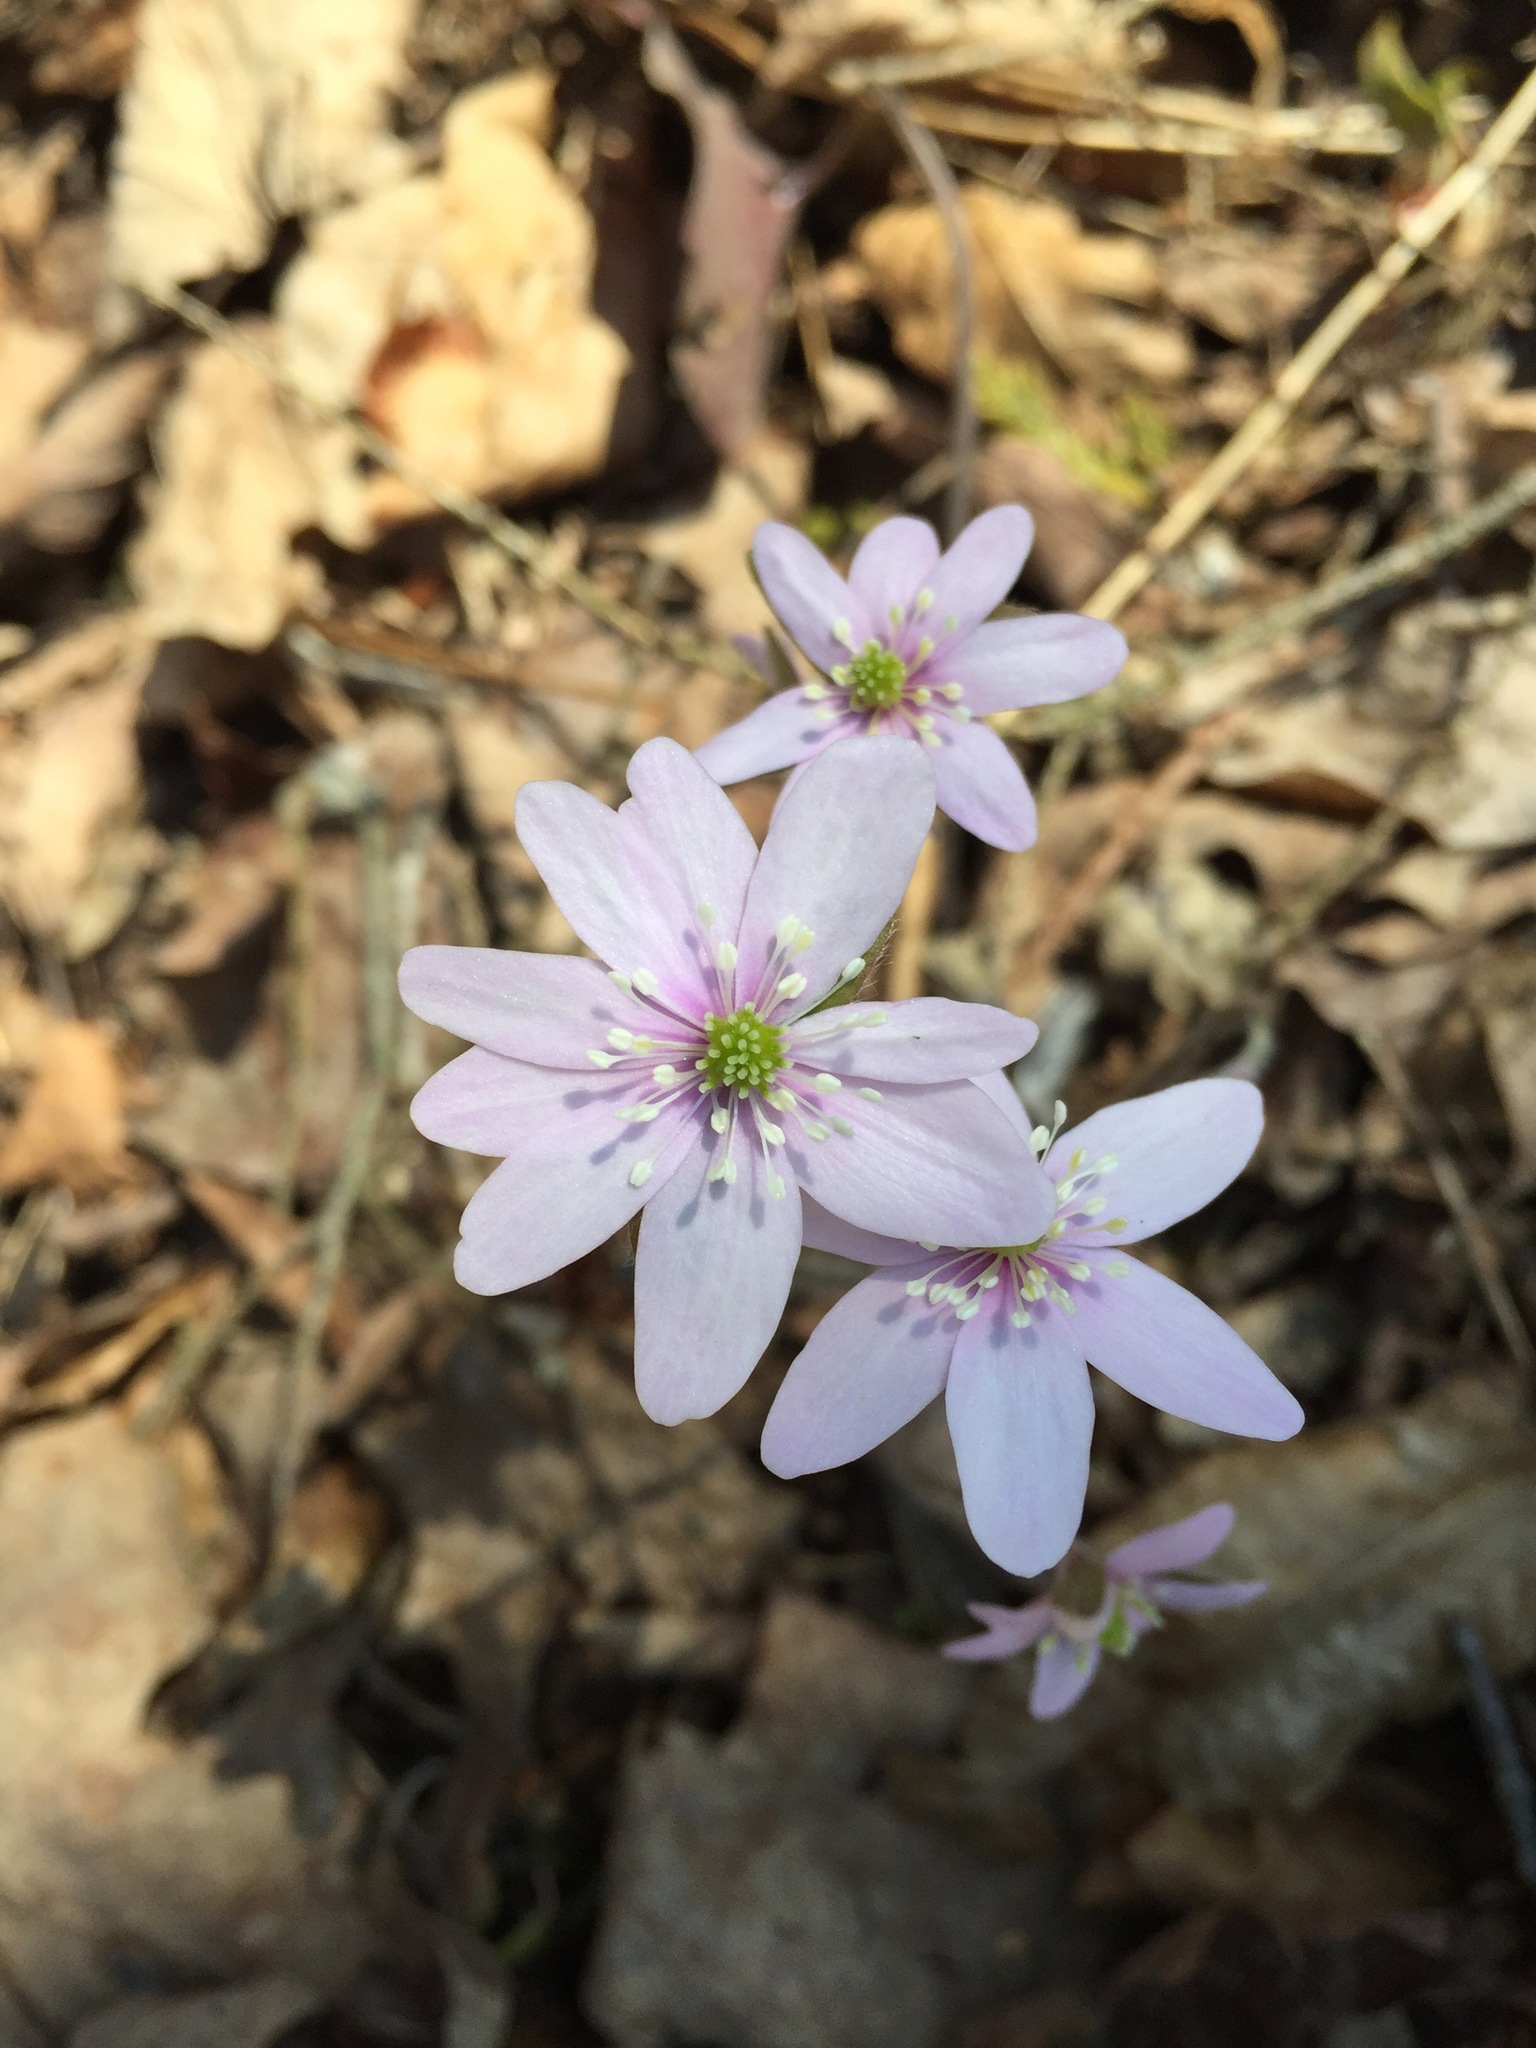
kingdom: Plantae
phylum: Tracheophyta
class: Magnoliopsida
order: Ranunculales
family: Ranunculaceae
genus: Hepatica
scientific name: Hepatica acutiloba
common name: Sharp-lobed hepatica
